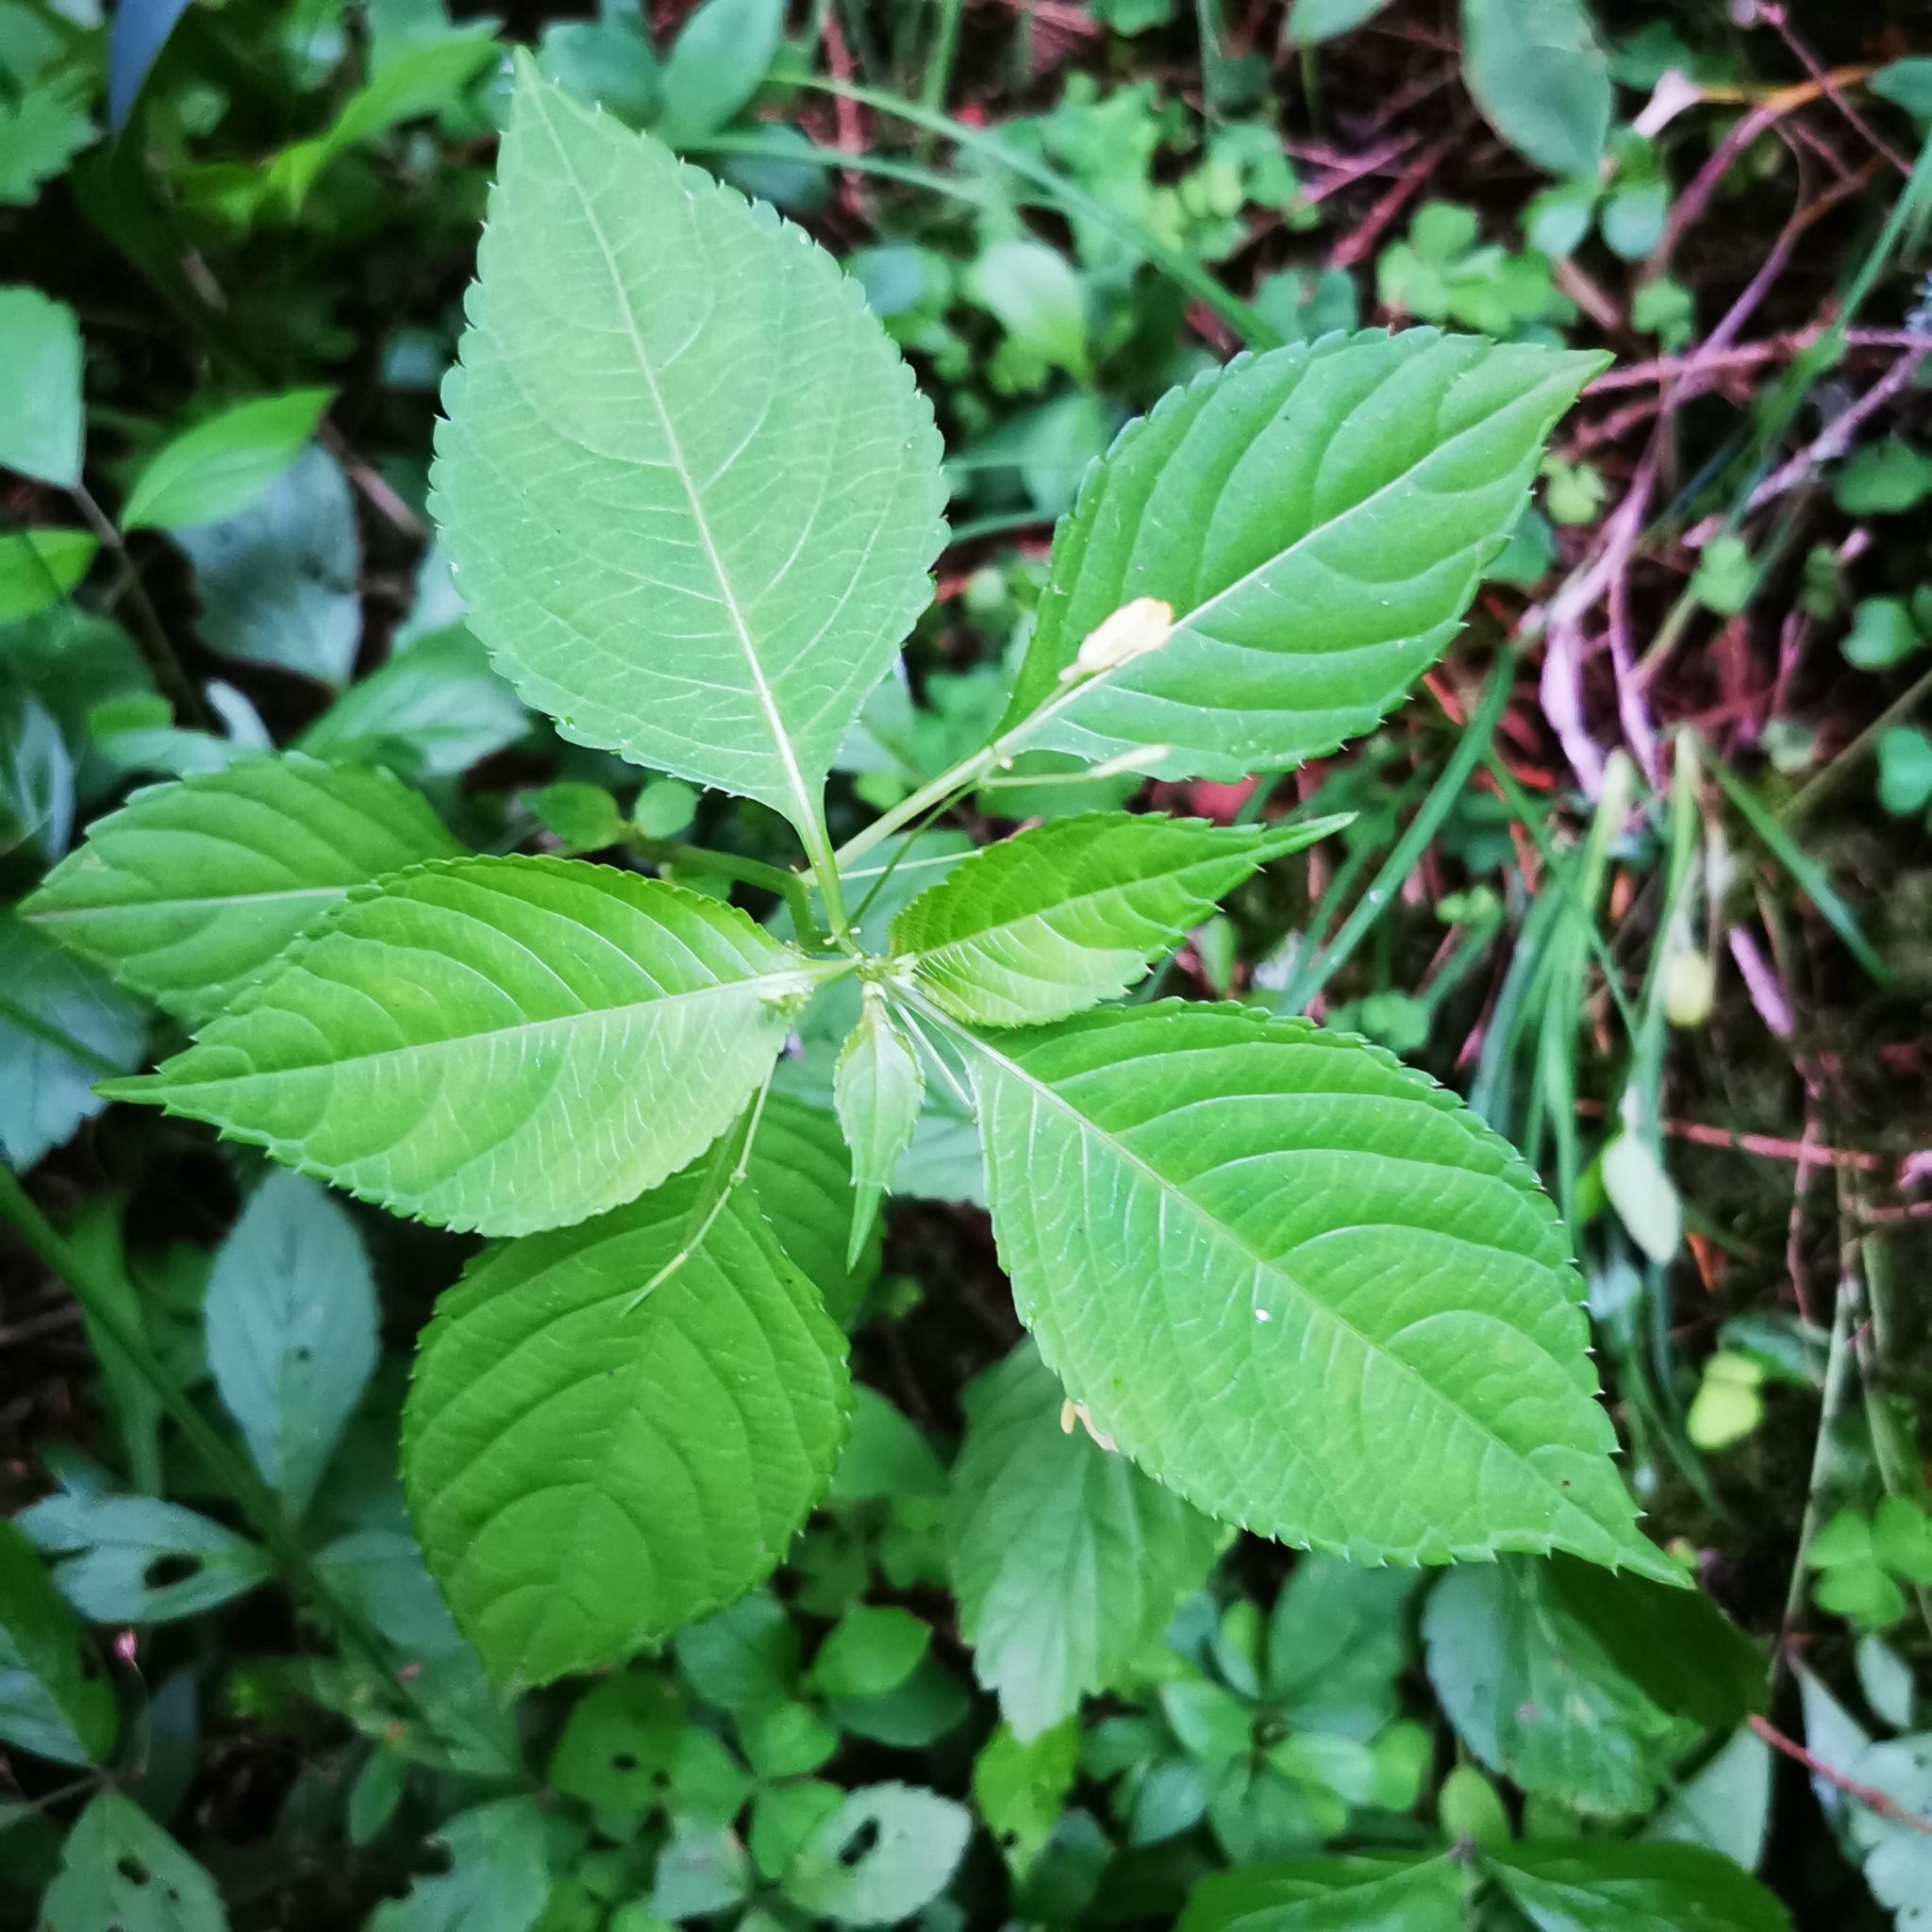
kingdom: Plantae
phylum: Tracheophyta
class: Magnoliopsida
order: Ericales
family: Balsaminaceae
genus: Impatiens
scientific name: Impatiens parviflora
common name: Small balsam
